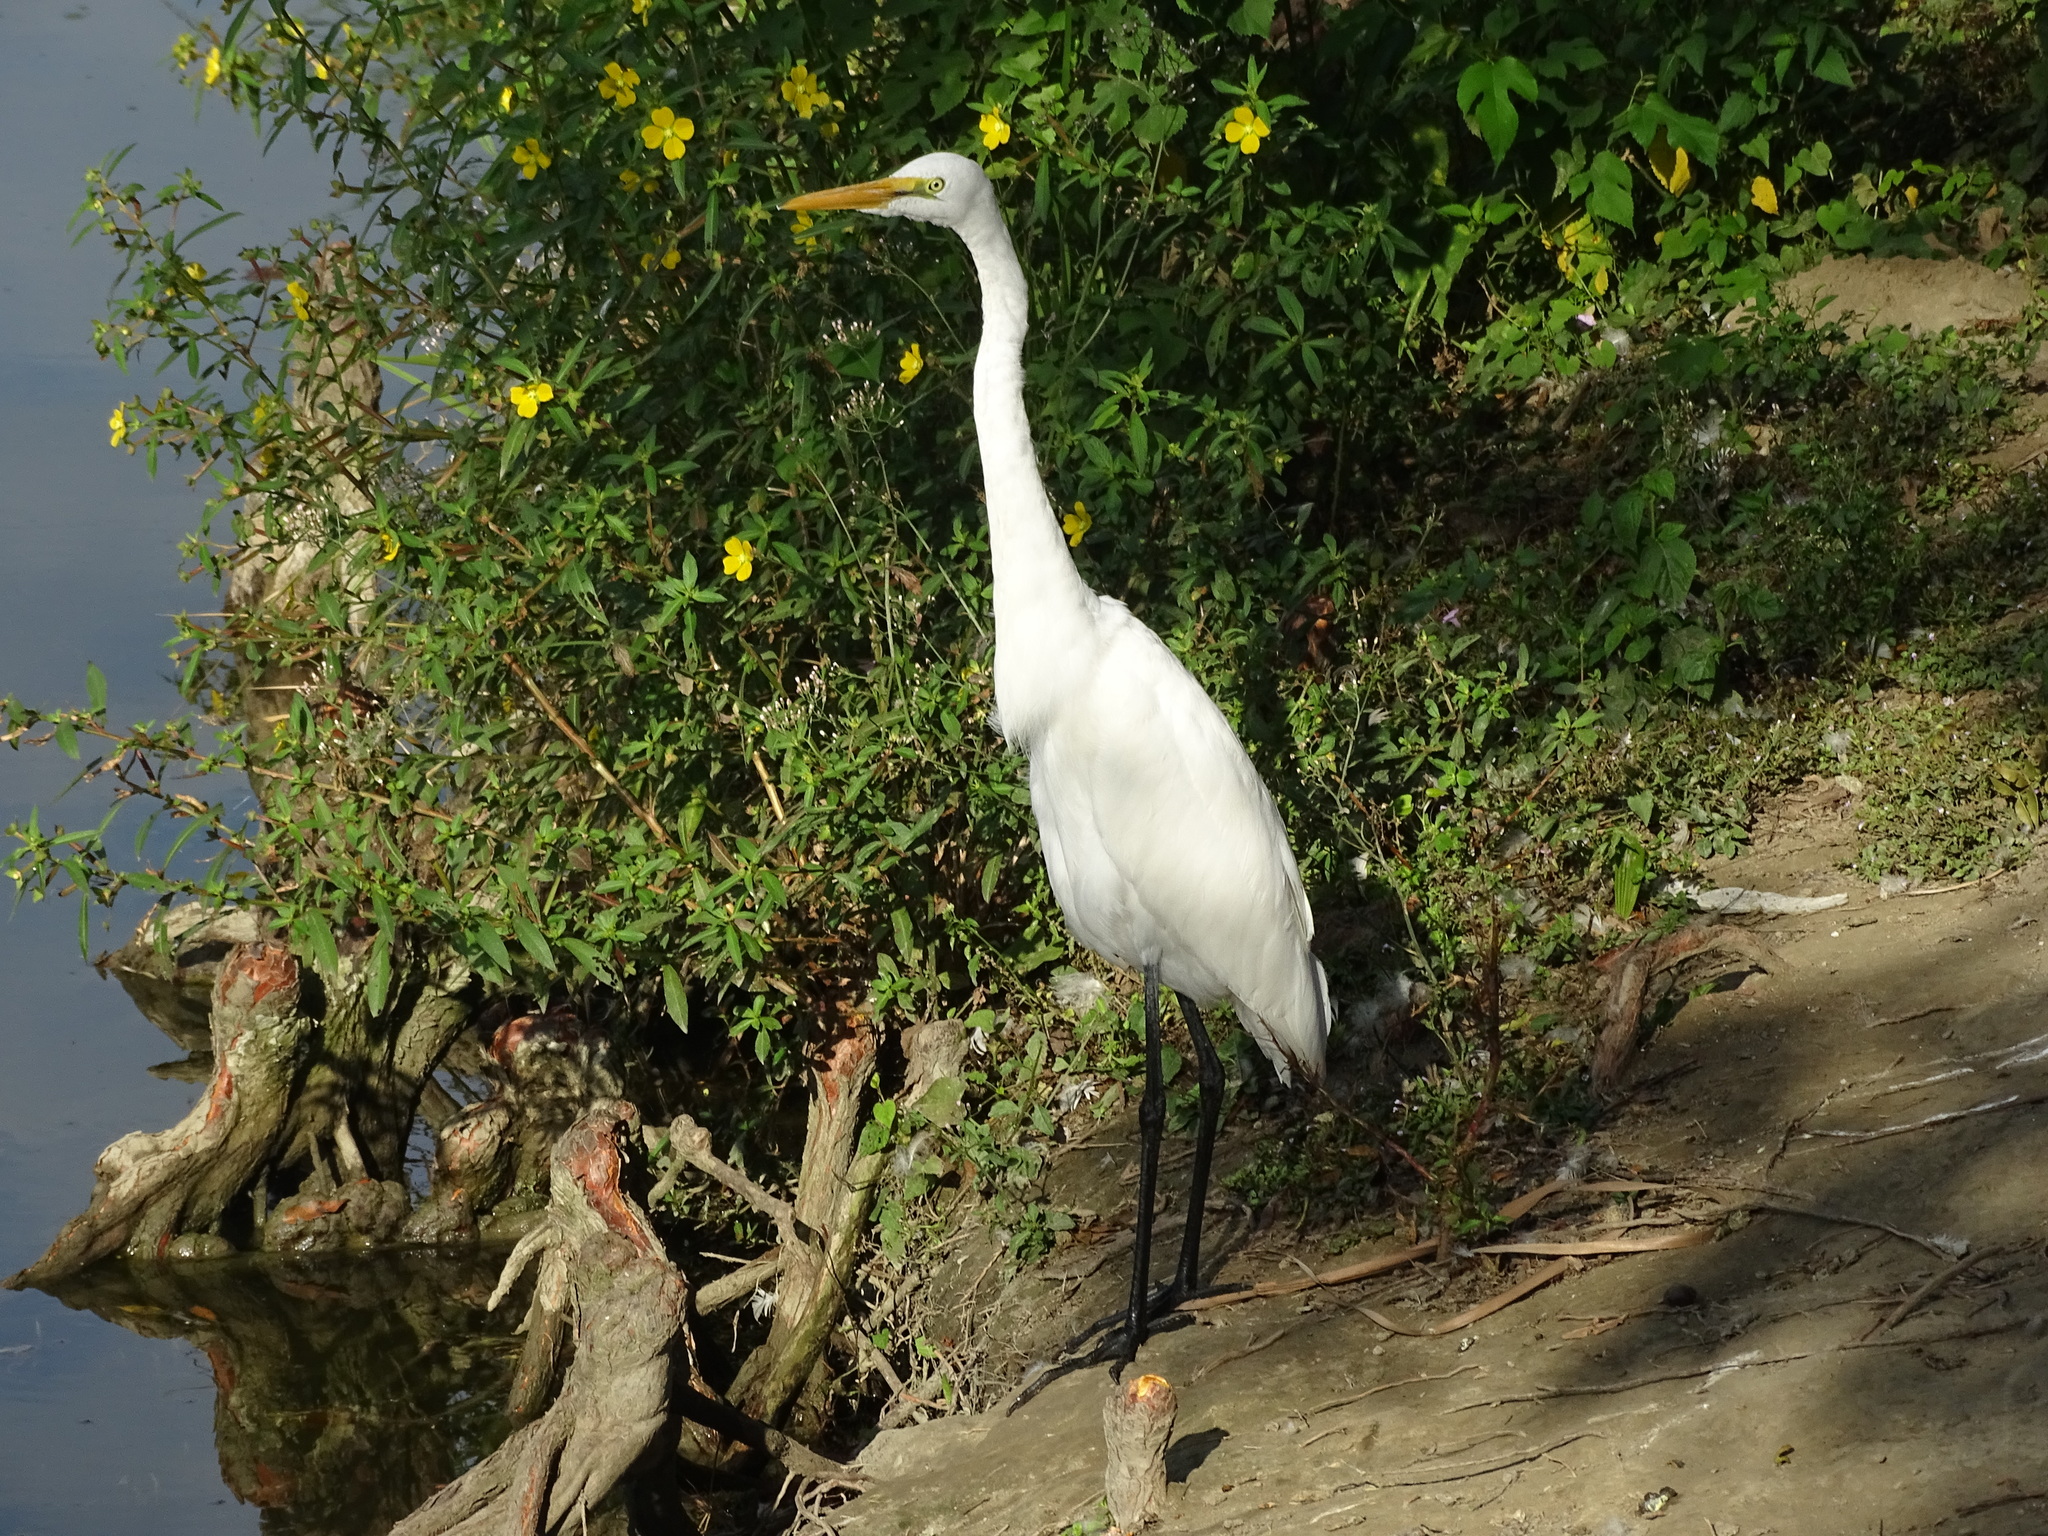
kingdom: Animalia
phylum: Chordata
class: Aves
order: Pelecaniformes
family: Ardeidae
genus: Ardea
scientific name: Ardea alba
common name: Great egret
